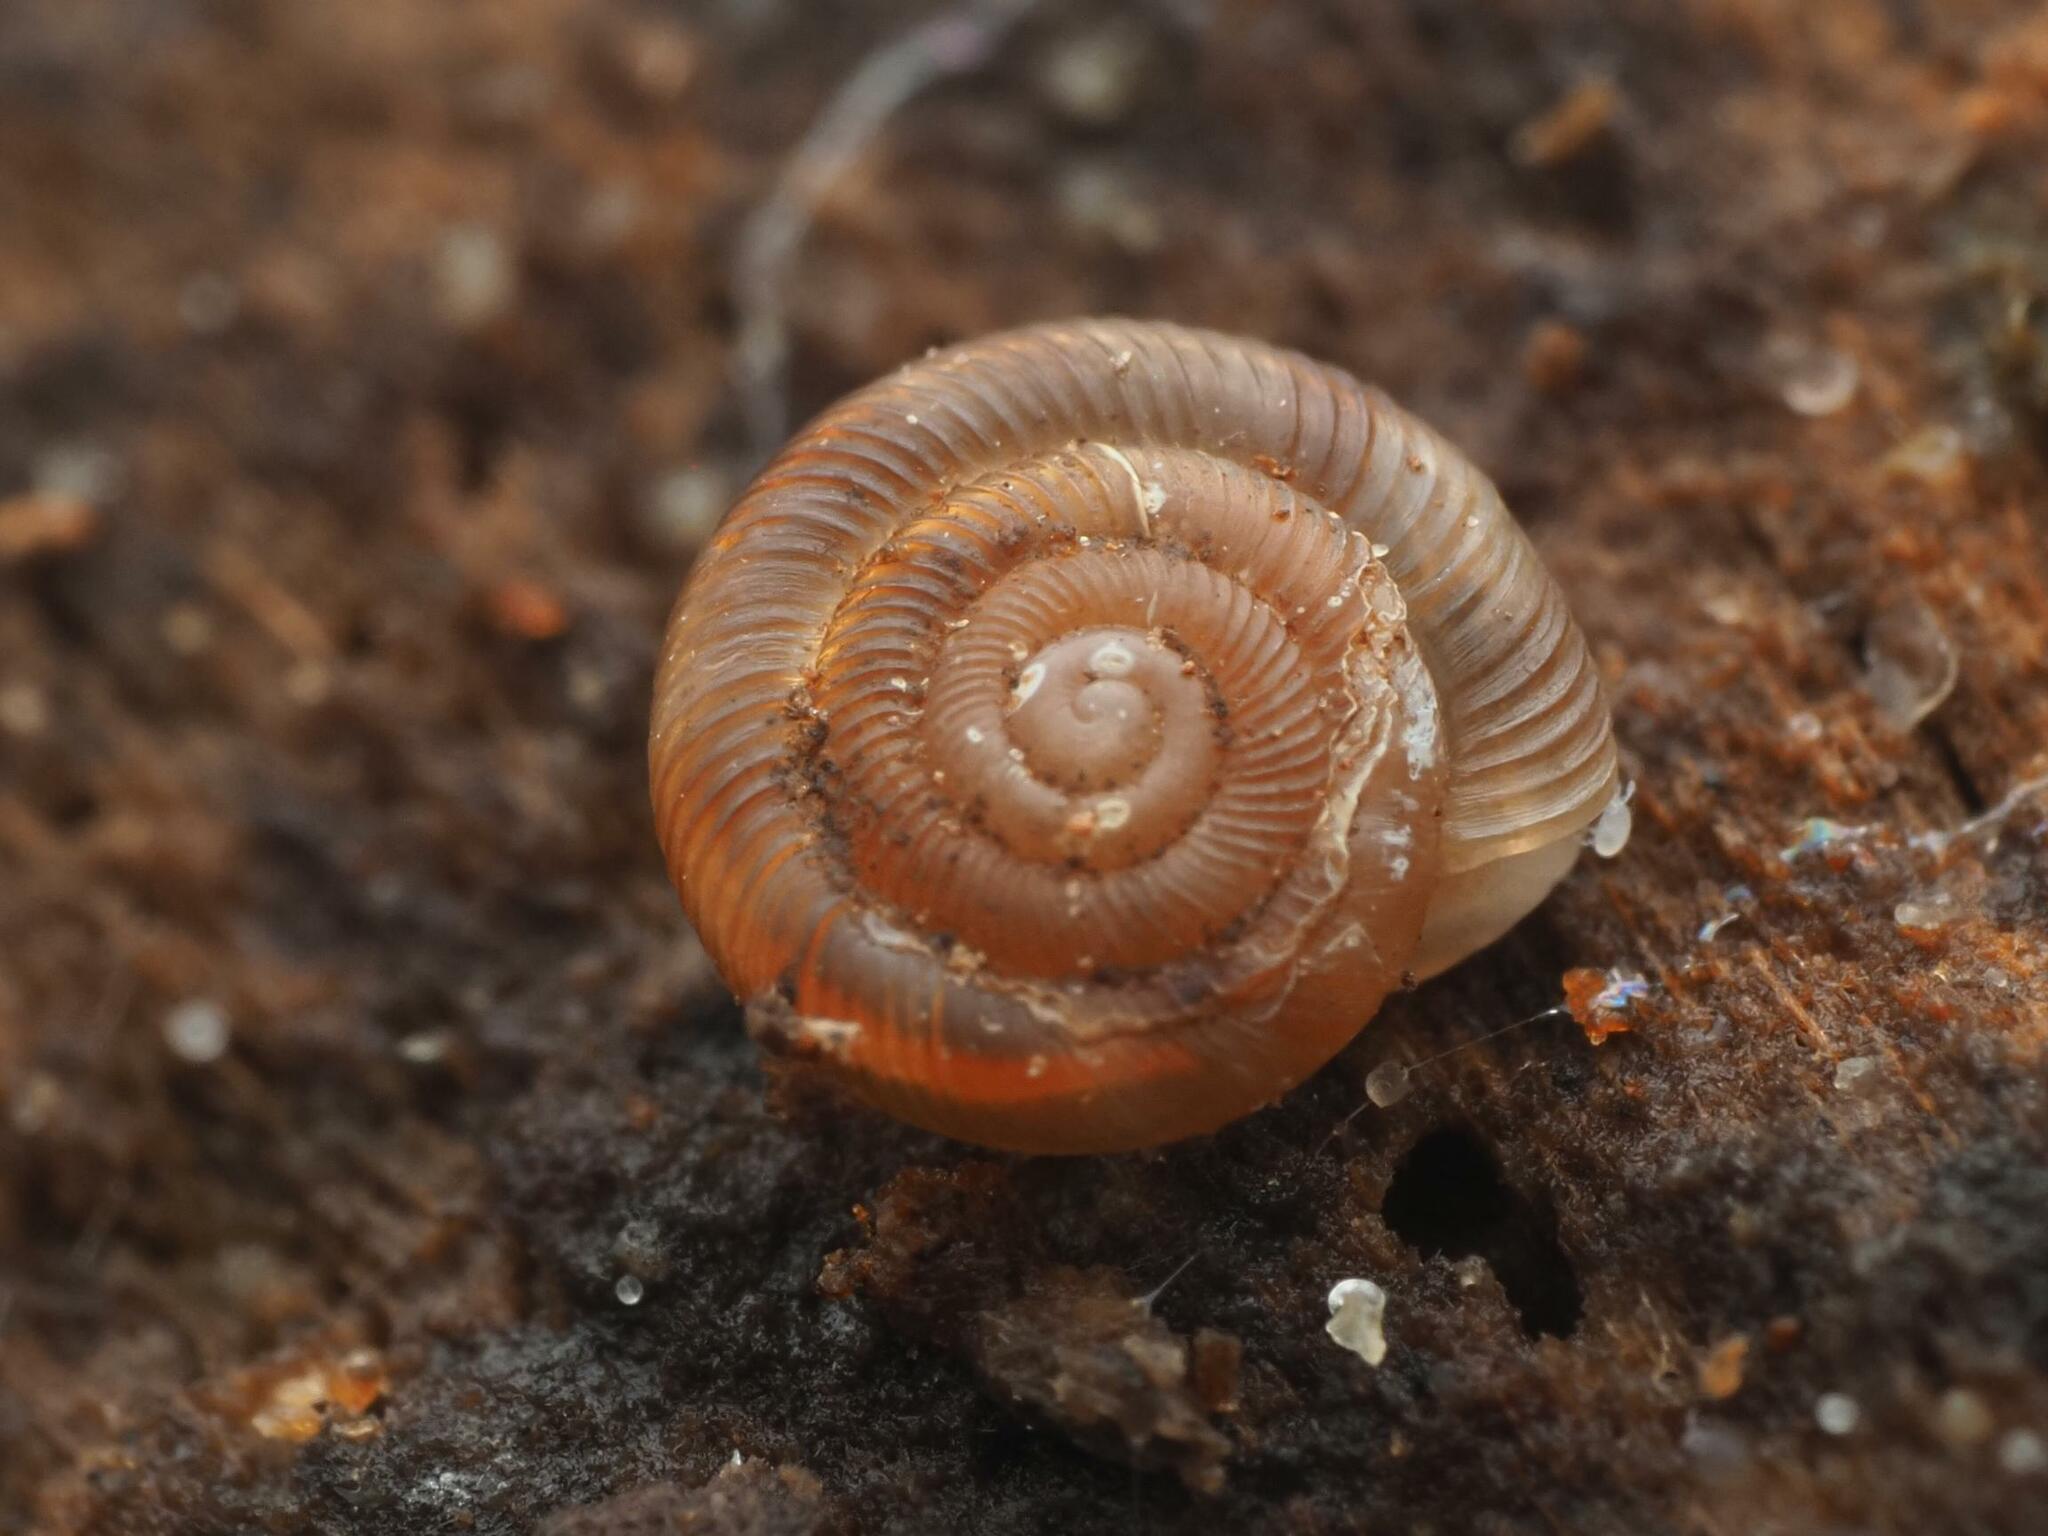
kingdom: Animalia
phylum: Mollusca
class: Gastropoda
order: Stylommatophora
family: Discidae
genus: Discus
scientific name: Discus rotundatus
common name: Rounded snail
